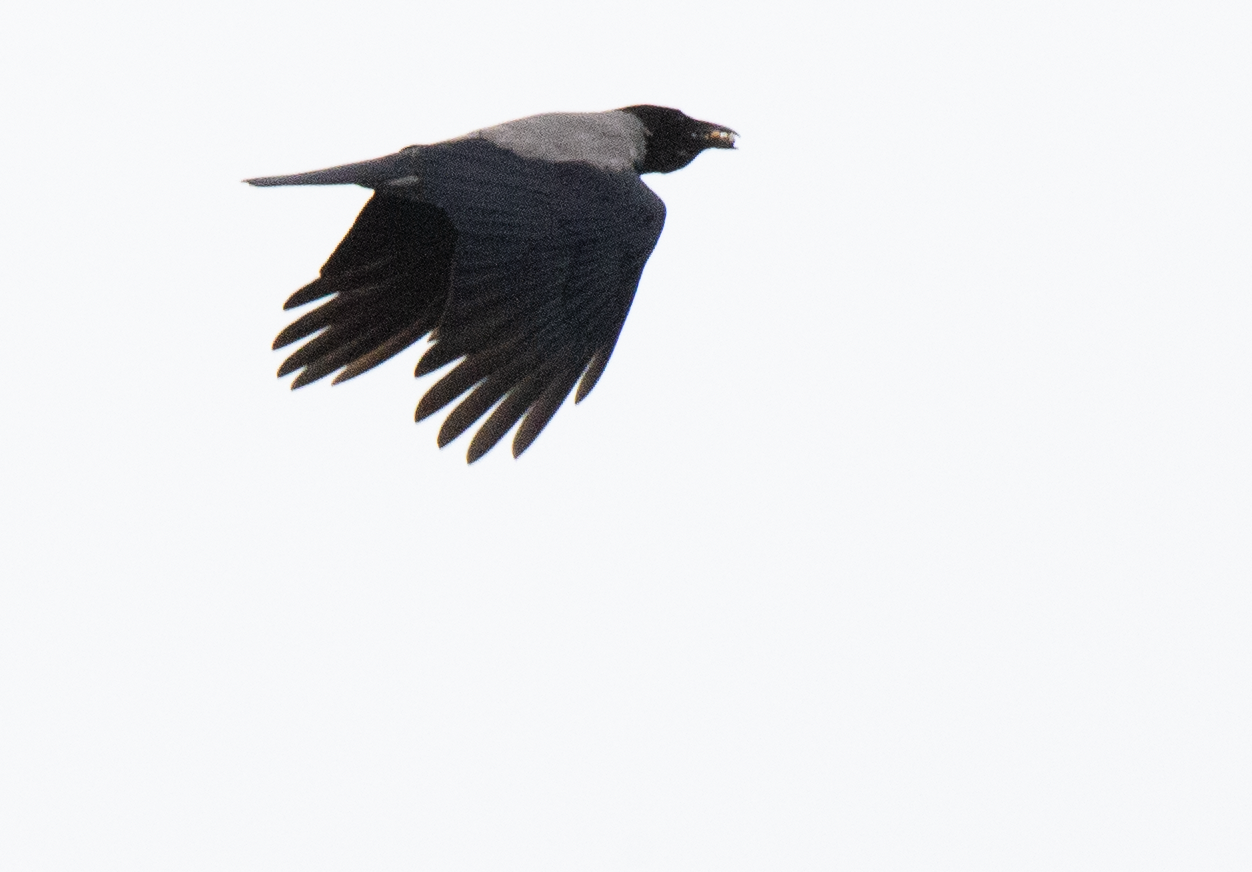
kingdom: Animalia
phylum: Chordata
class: Aves
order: Passeriformes
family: Corvidae
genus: Corvus
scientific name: Corvus cornix
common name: Hooded crow
